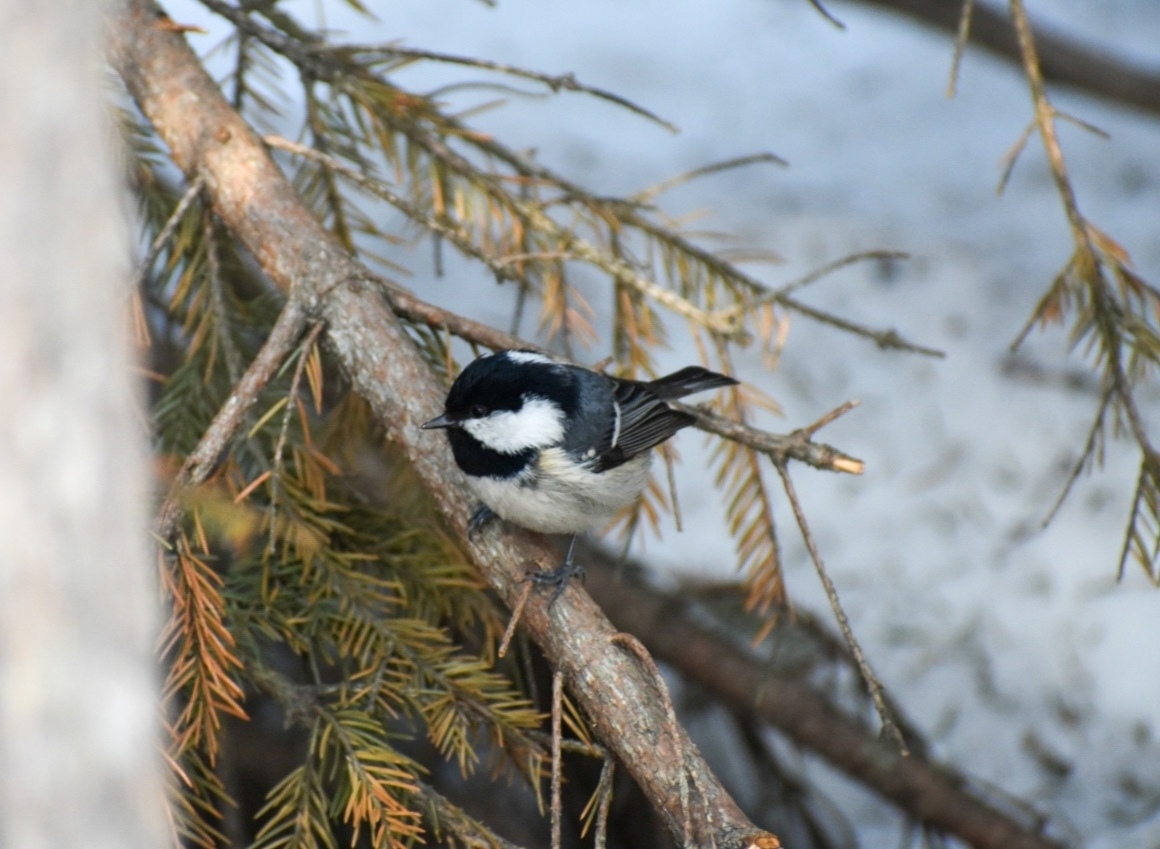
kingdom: Animalia
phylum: Chordata
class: Aves
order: Passeriformes
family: Paridae
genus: Periparus
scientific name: Periparus ater
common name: Coal tit
